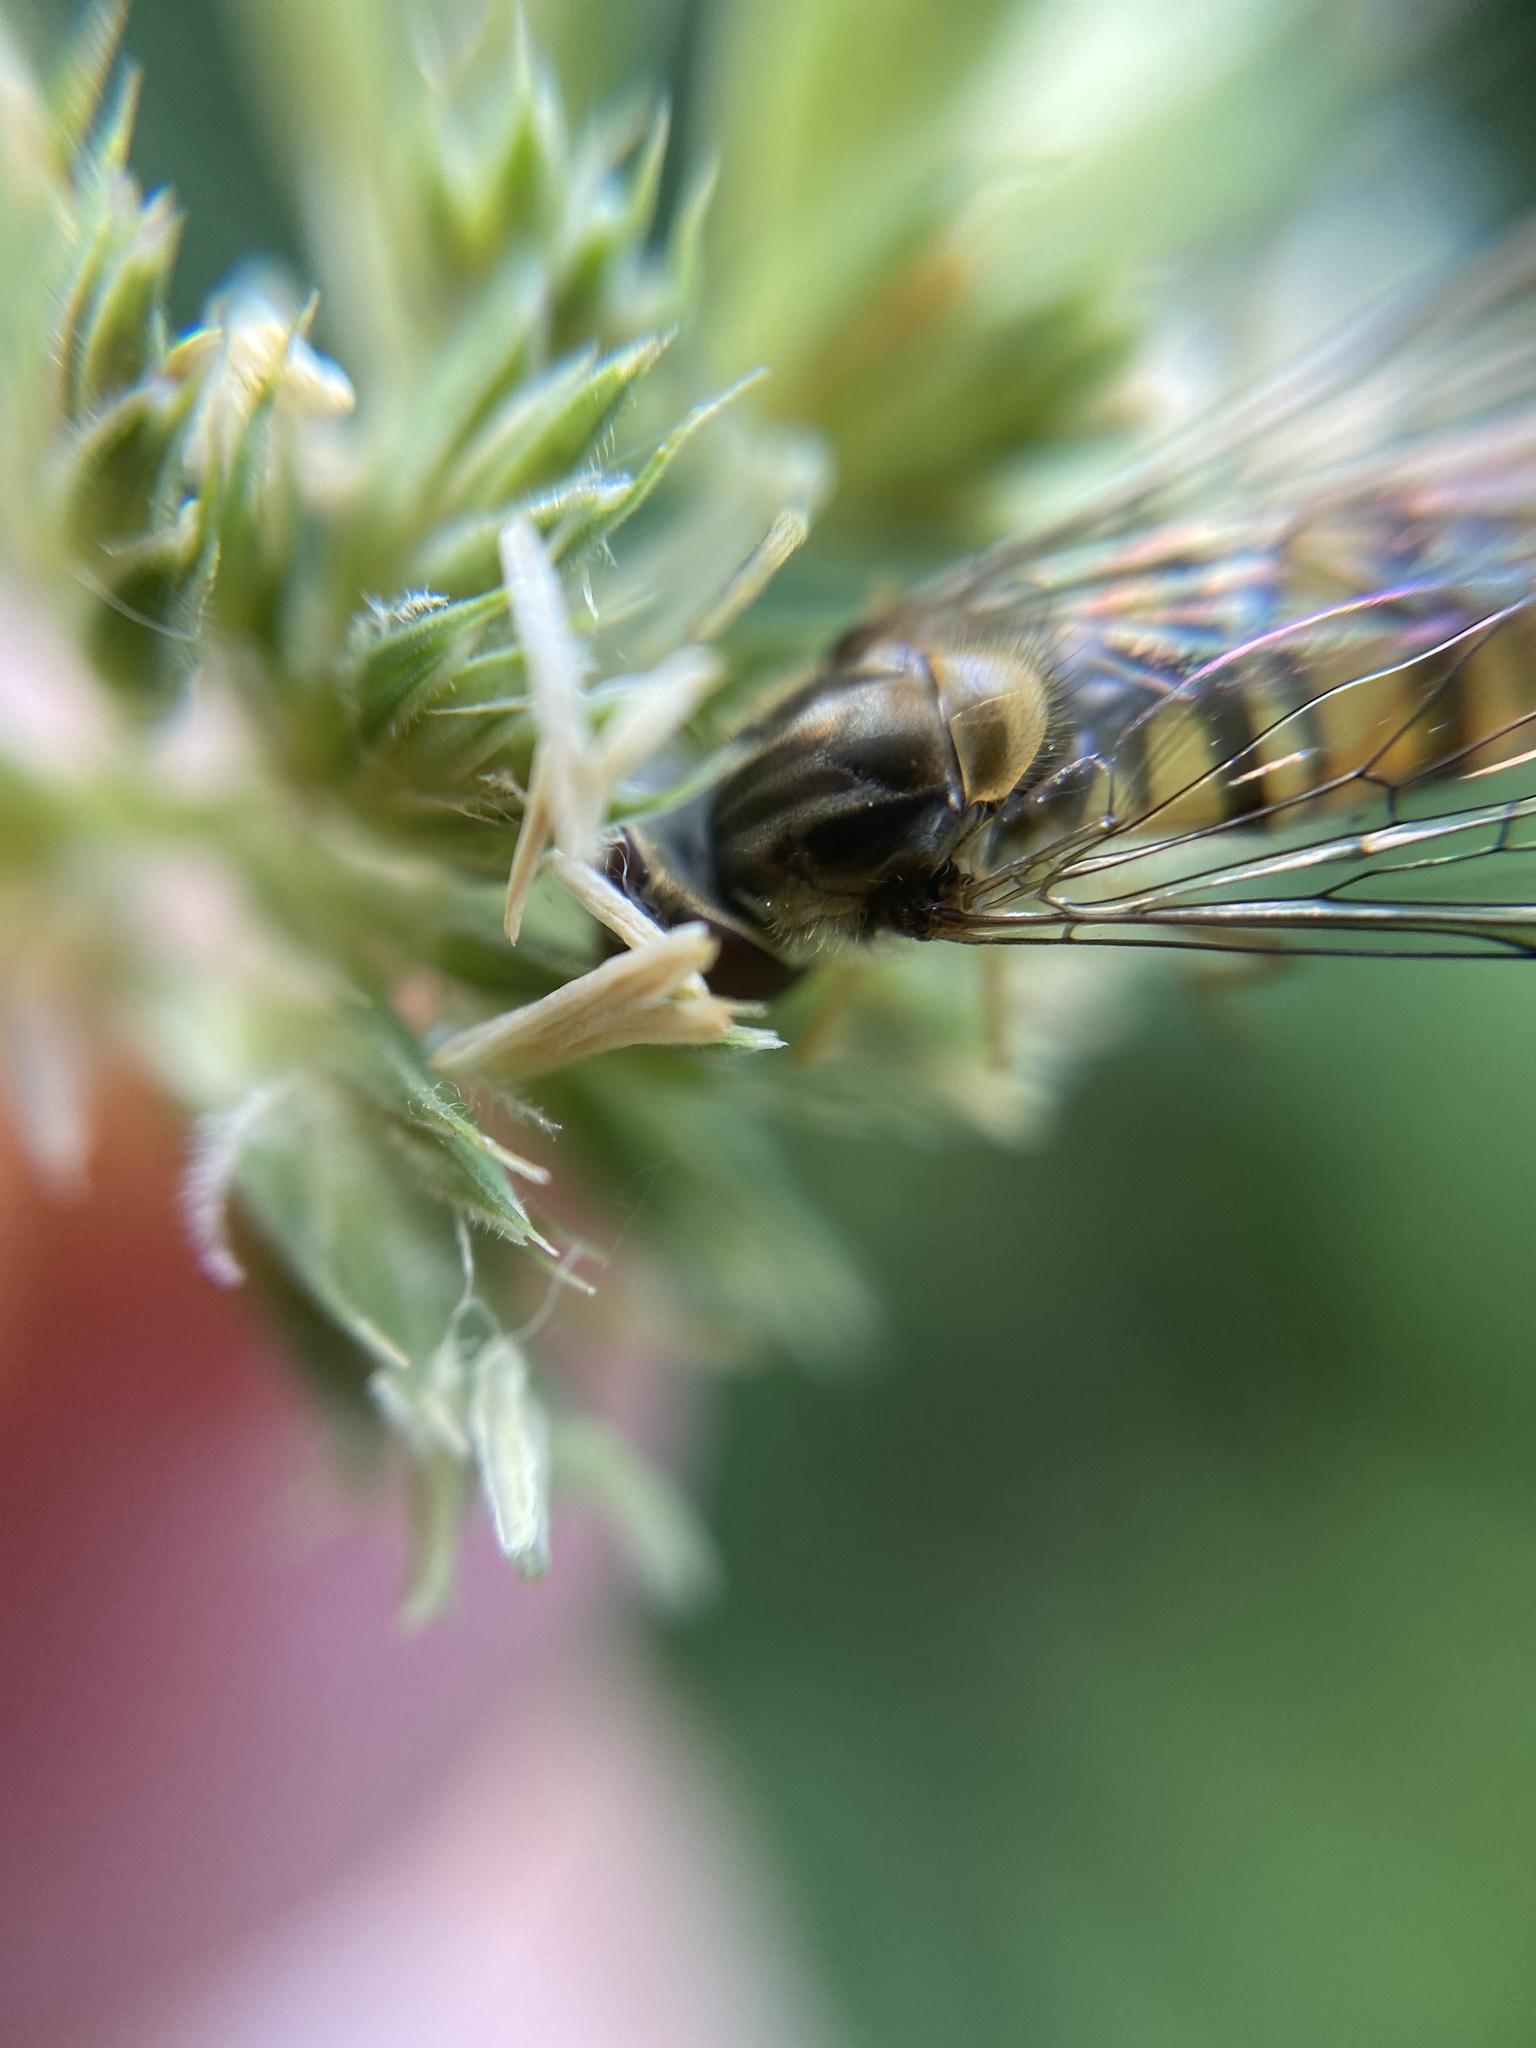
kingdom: Animalia
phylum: Arthropoda
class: Insecta
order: Diptera
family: Syrphidae
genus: Episyrphus
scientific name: Episyrphus balteatus
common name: Marmalade hoverfly
